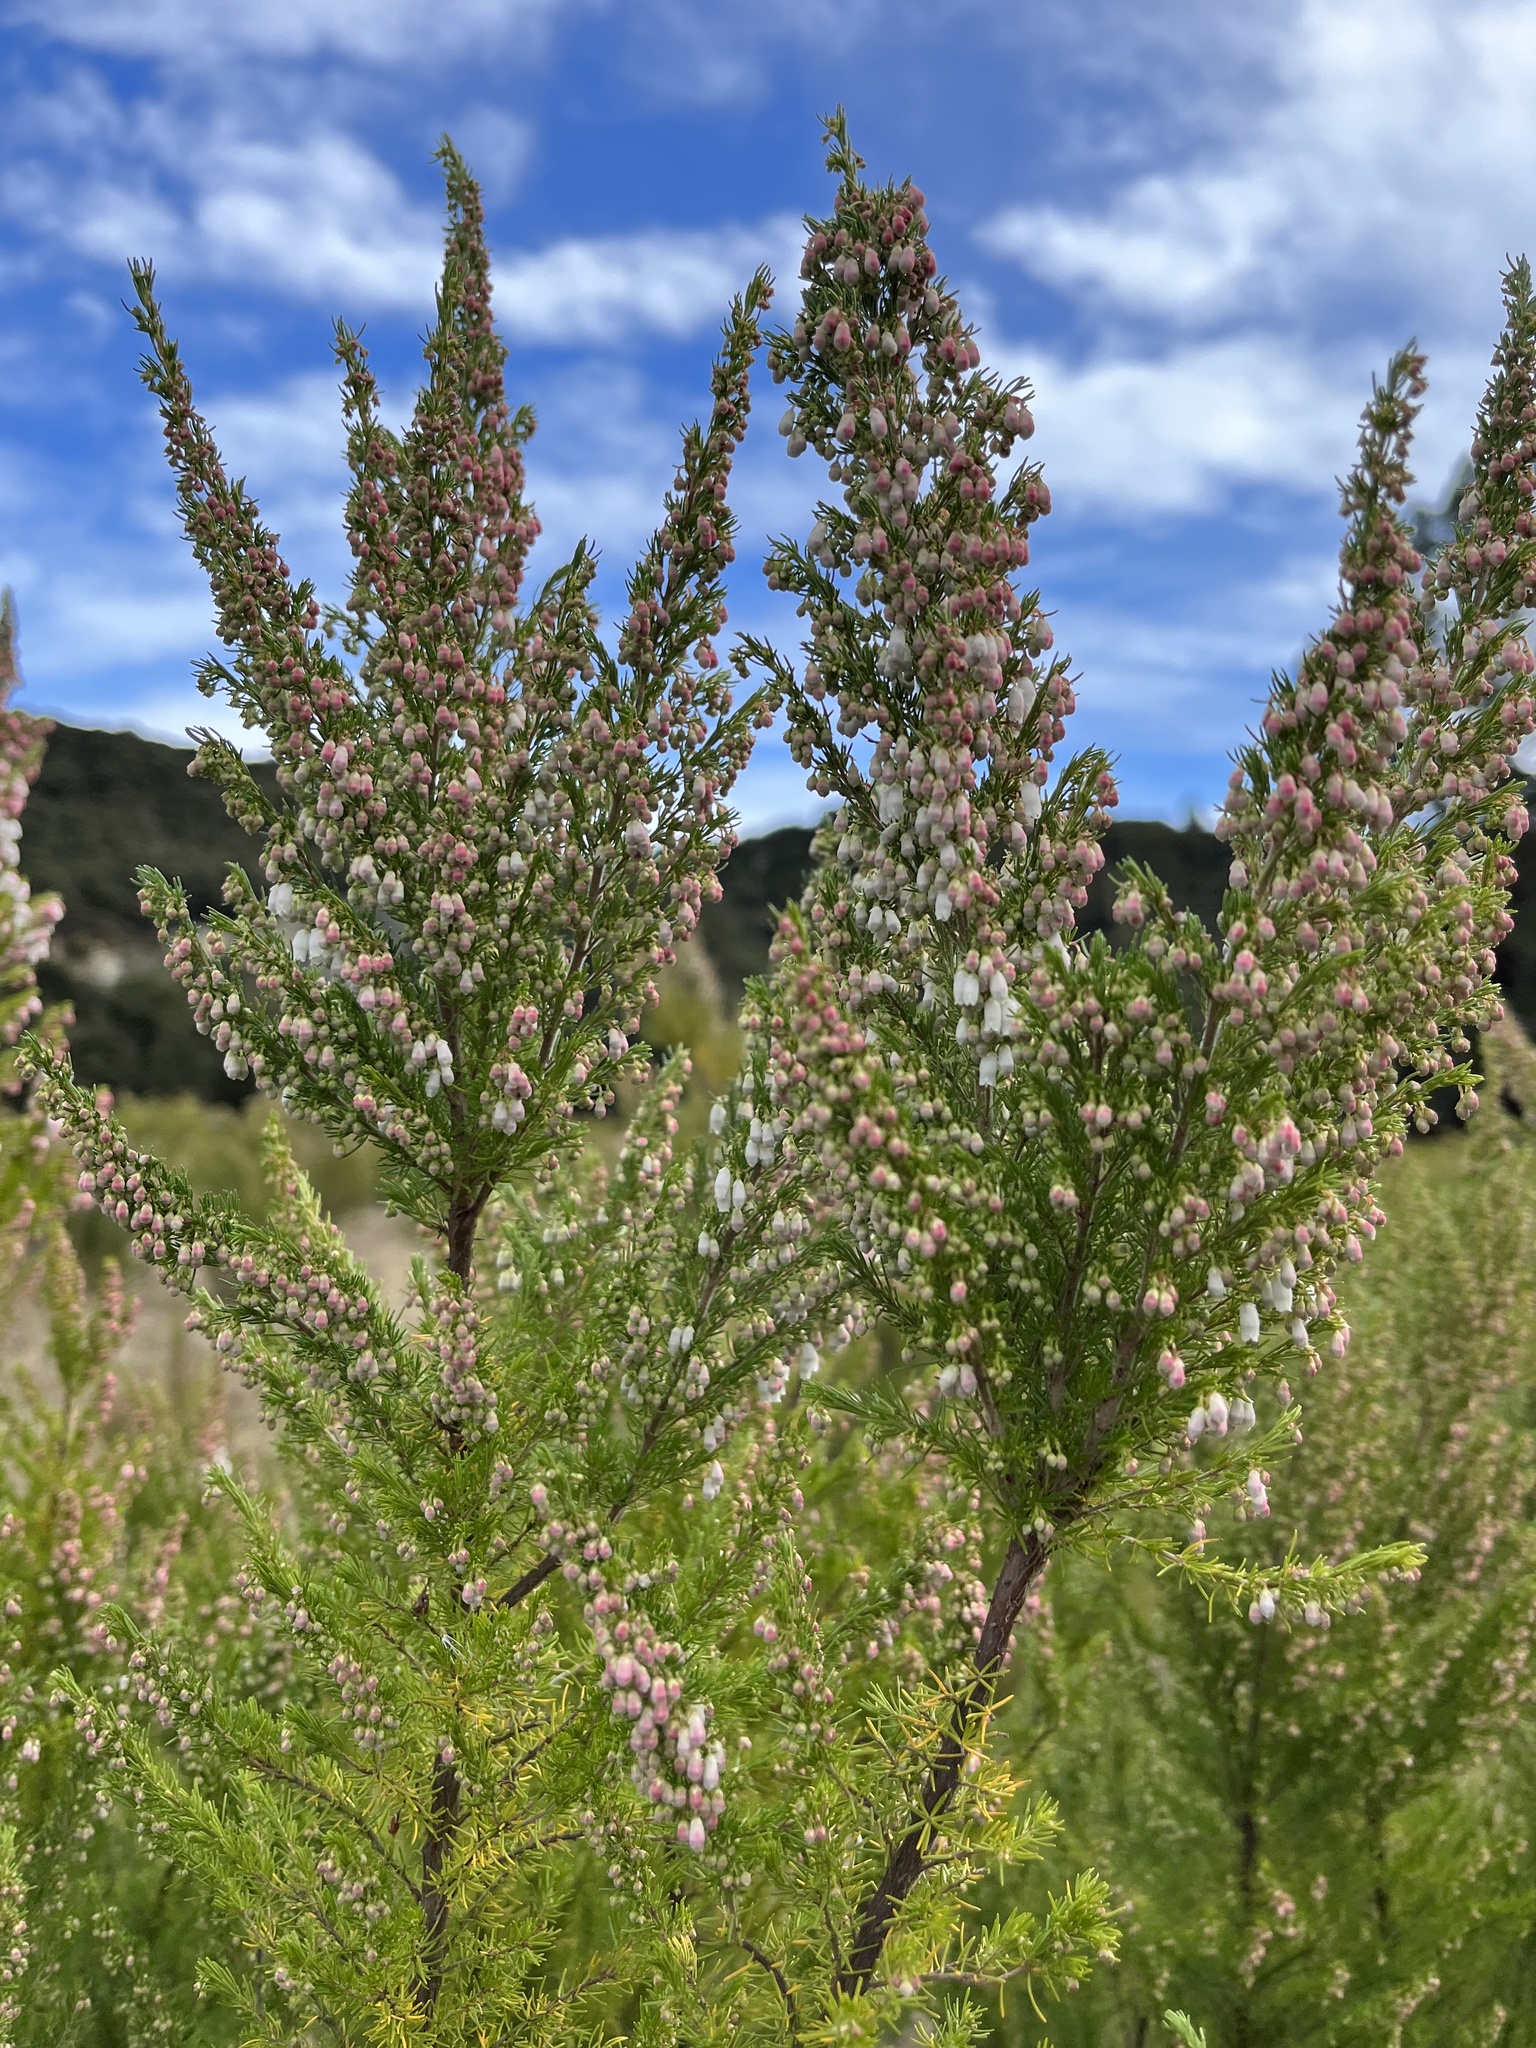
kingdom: Plantae
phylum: Tracheophyta
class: Magnoliopsida
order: Ericales
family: Ericaceae
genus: Erica
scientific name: Erica lusitanica
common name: Spanish heath
